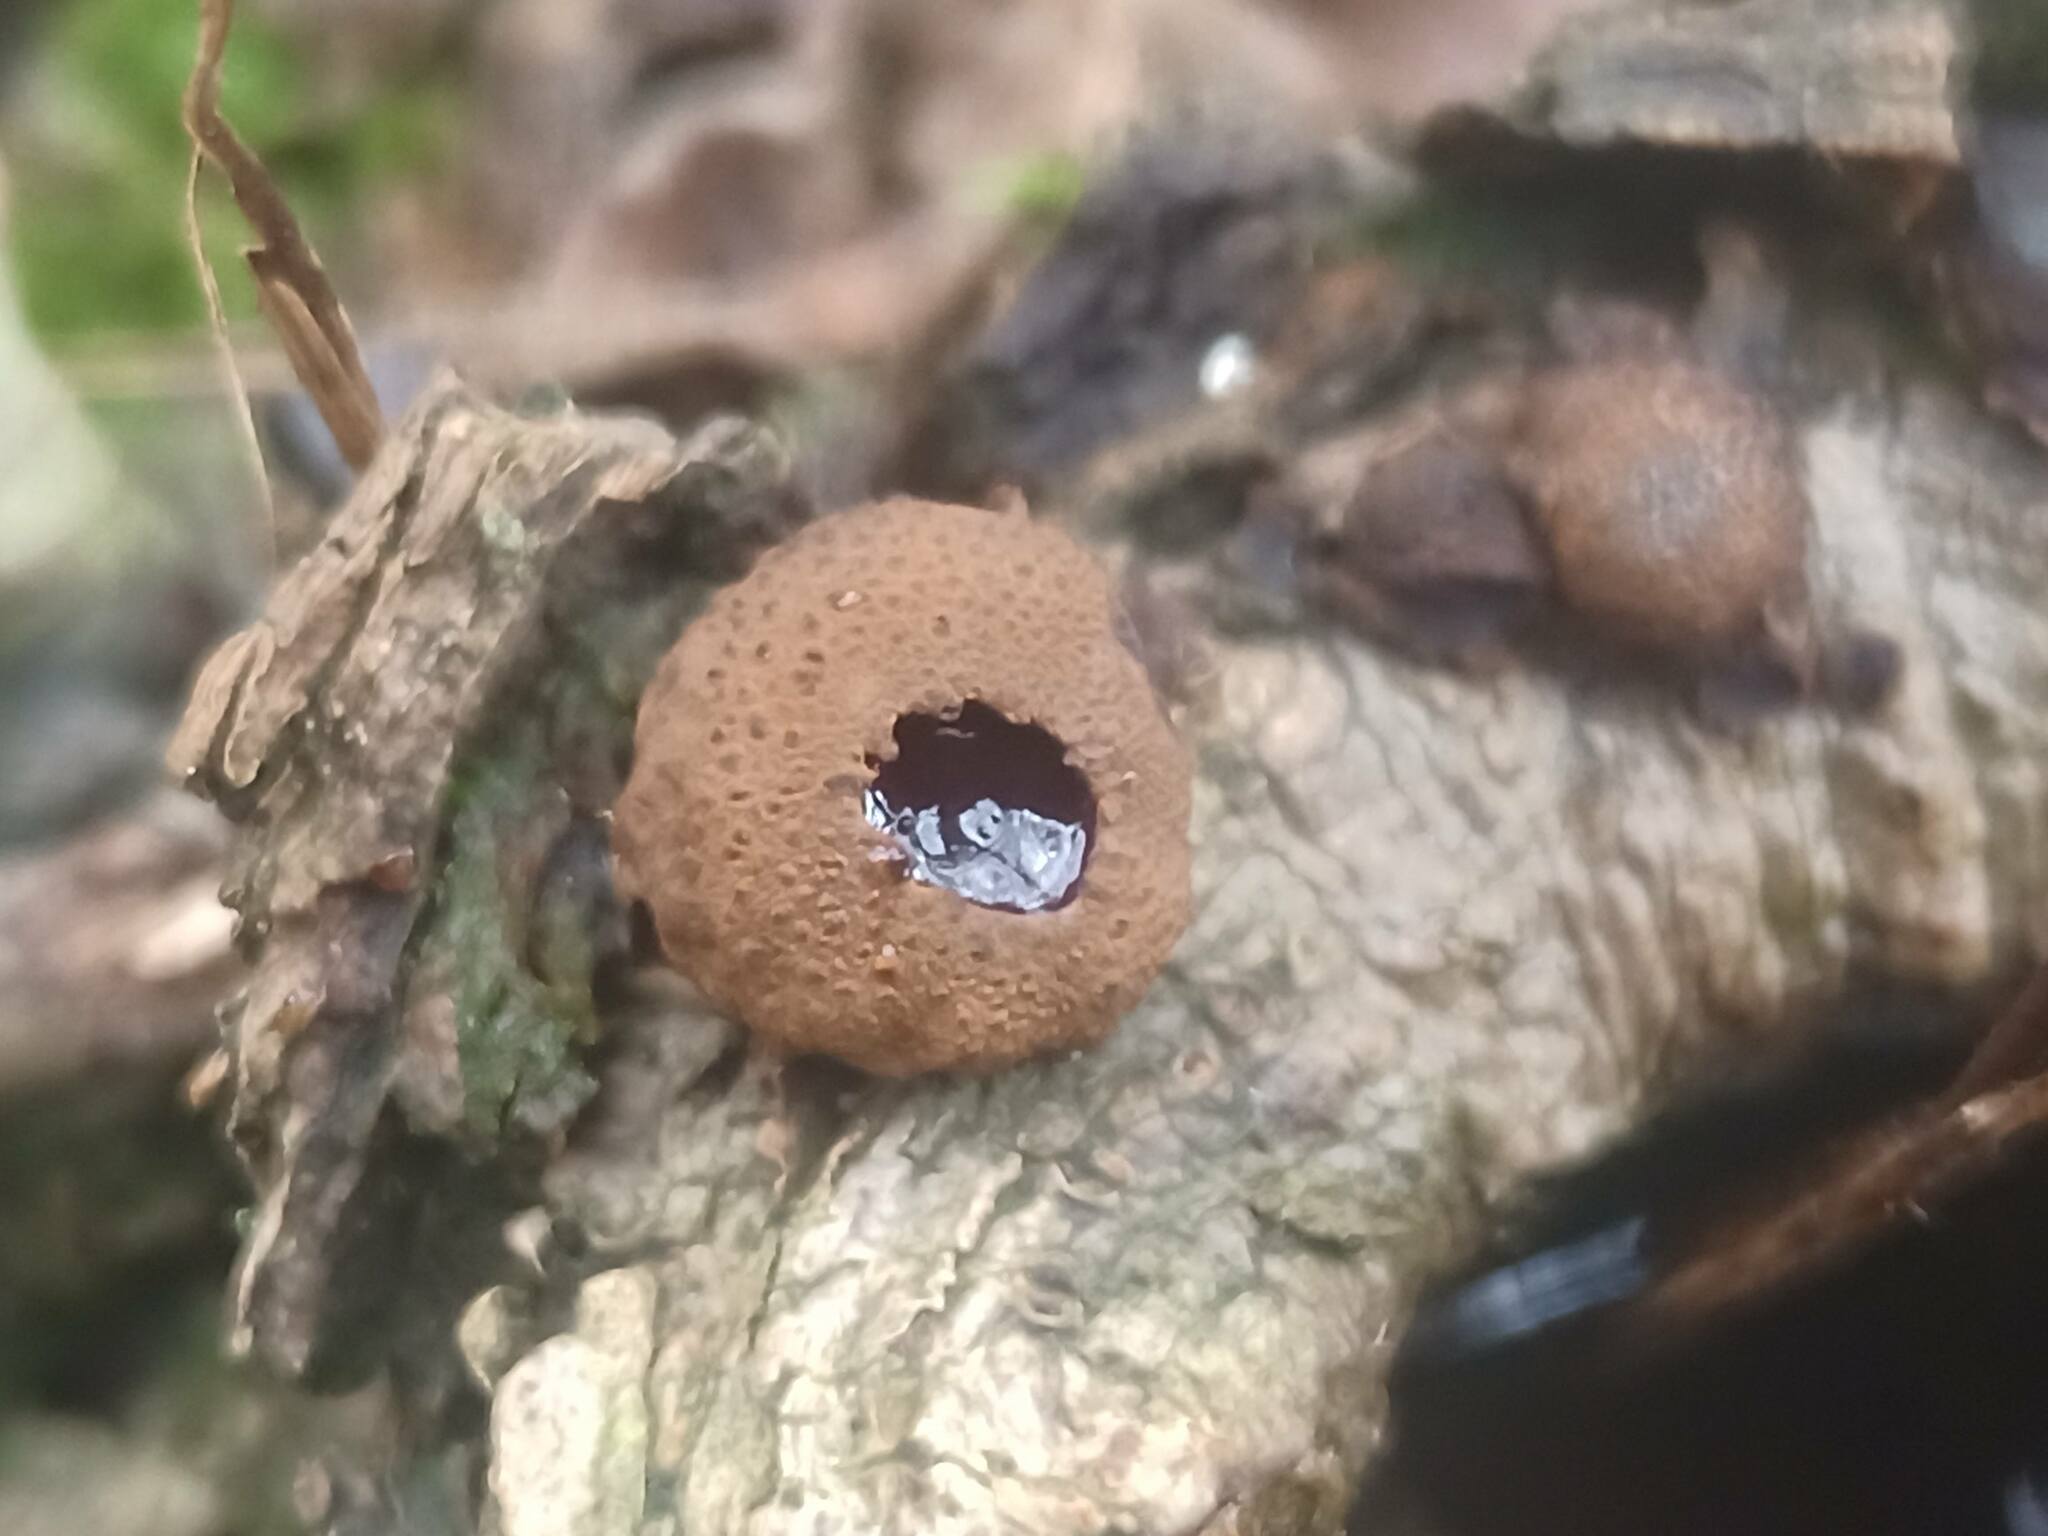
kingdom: Fungi
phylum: Ascomycota
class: Leotiomycetes
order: Phacidiales
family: Phacidiaceae
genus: Bulgaria
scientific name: Bulgaria inquinans
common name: Black bulgar
